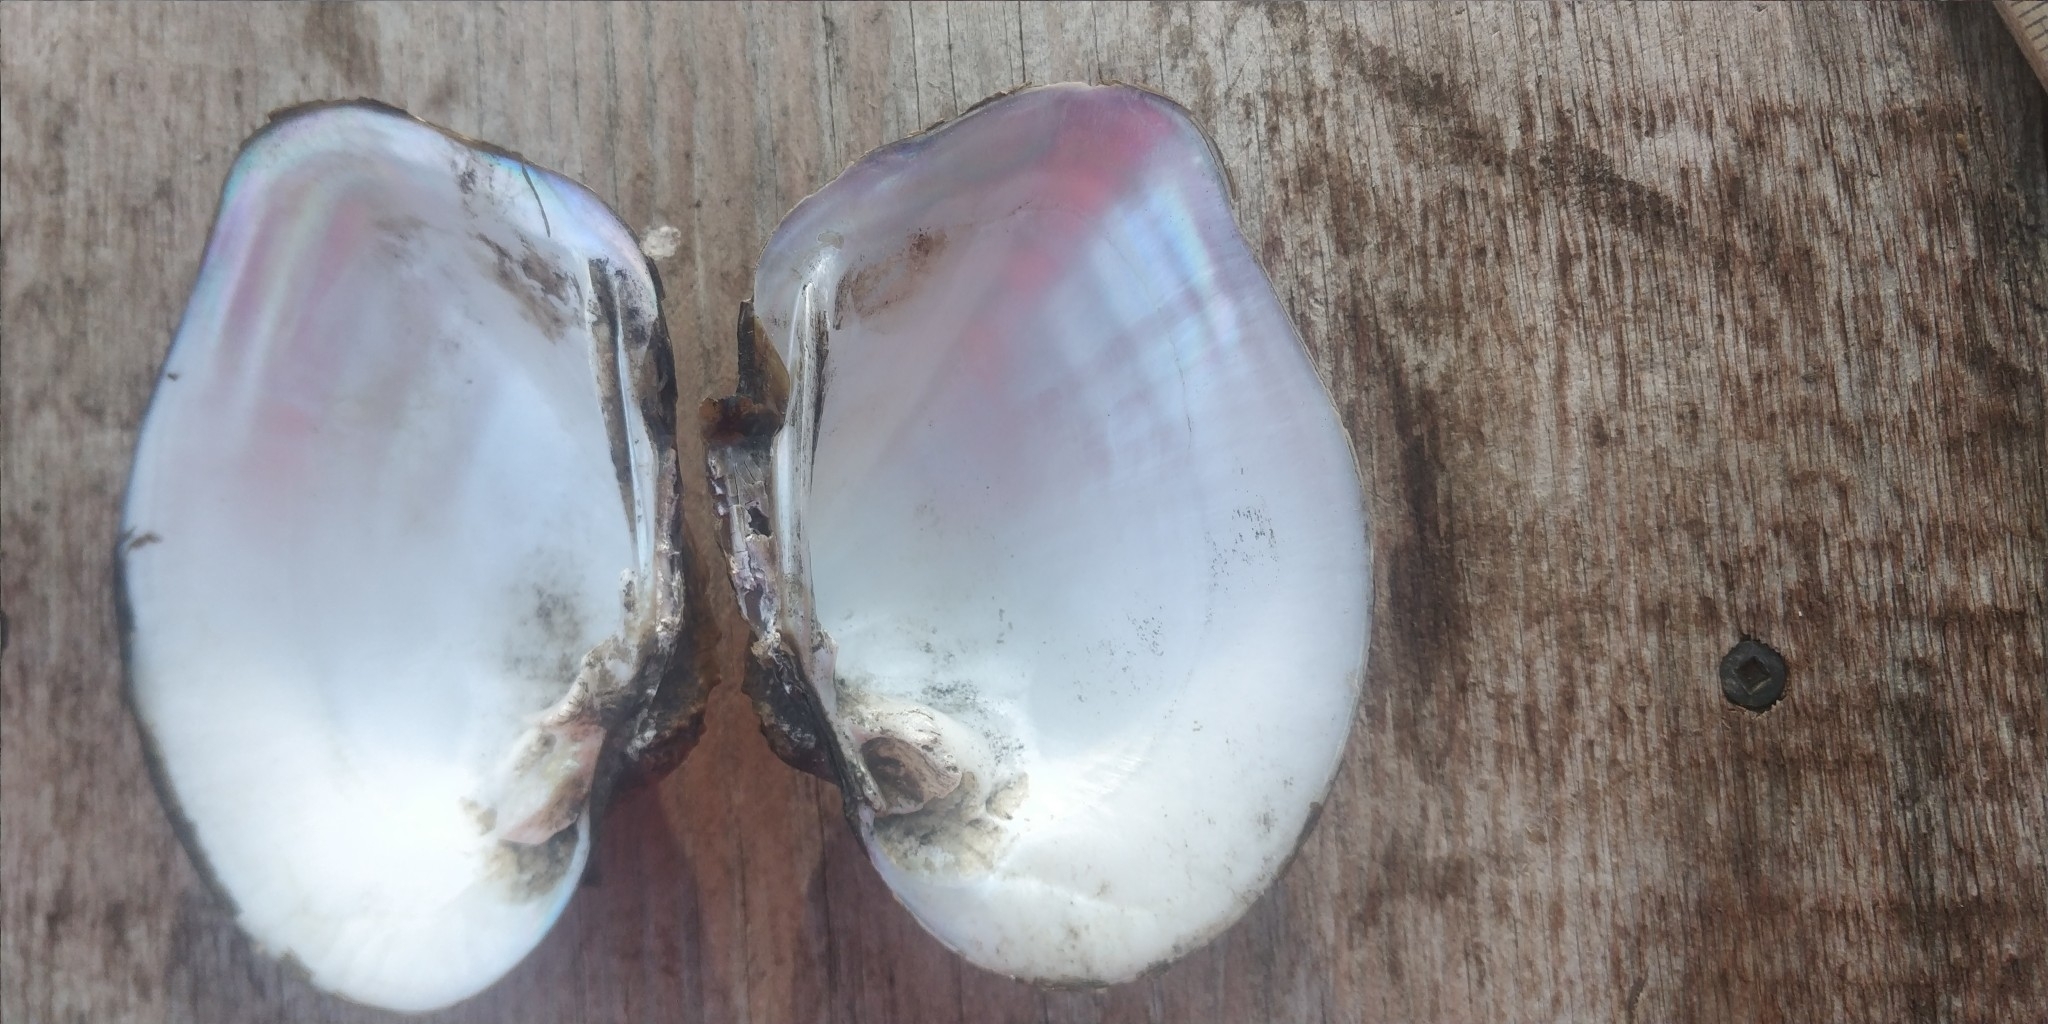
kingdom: Animalia
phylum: Mollusca
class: Bivalvia
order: Unionida
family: Unionidae
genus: Quadrula
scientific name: Quadrula quadrula
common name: Mapleleaf
